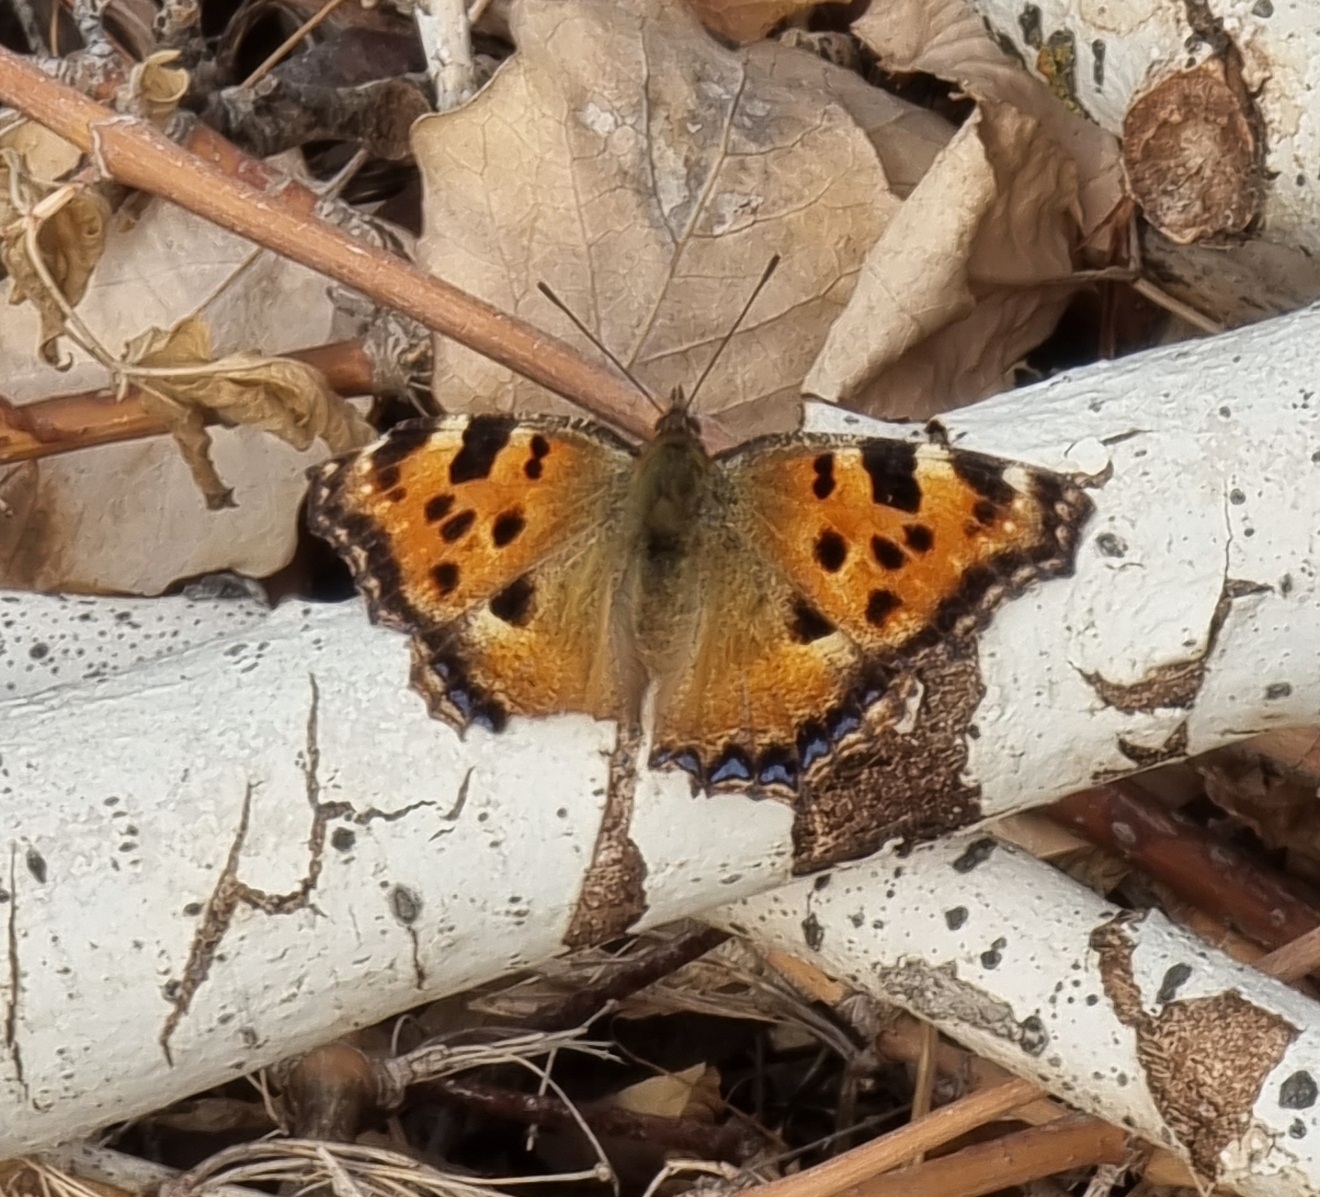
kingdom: Animalia
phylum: Arthropoda
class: Insecta
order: Lepidoptera
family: Nymphalidae
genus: Nymphalis
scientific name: Nymphalis polychloros
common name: Large tortoiseshell
